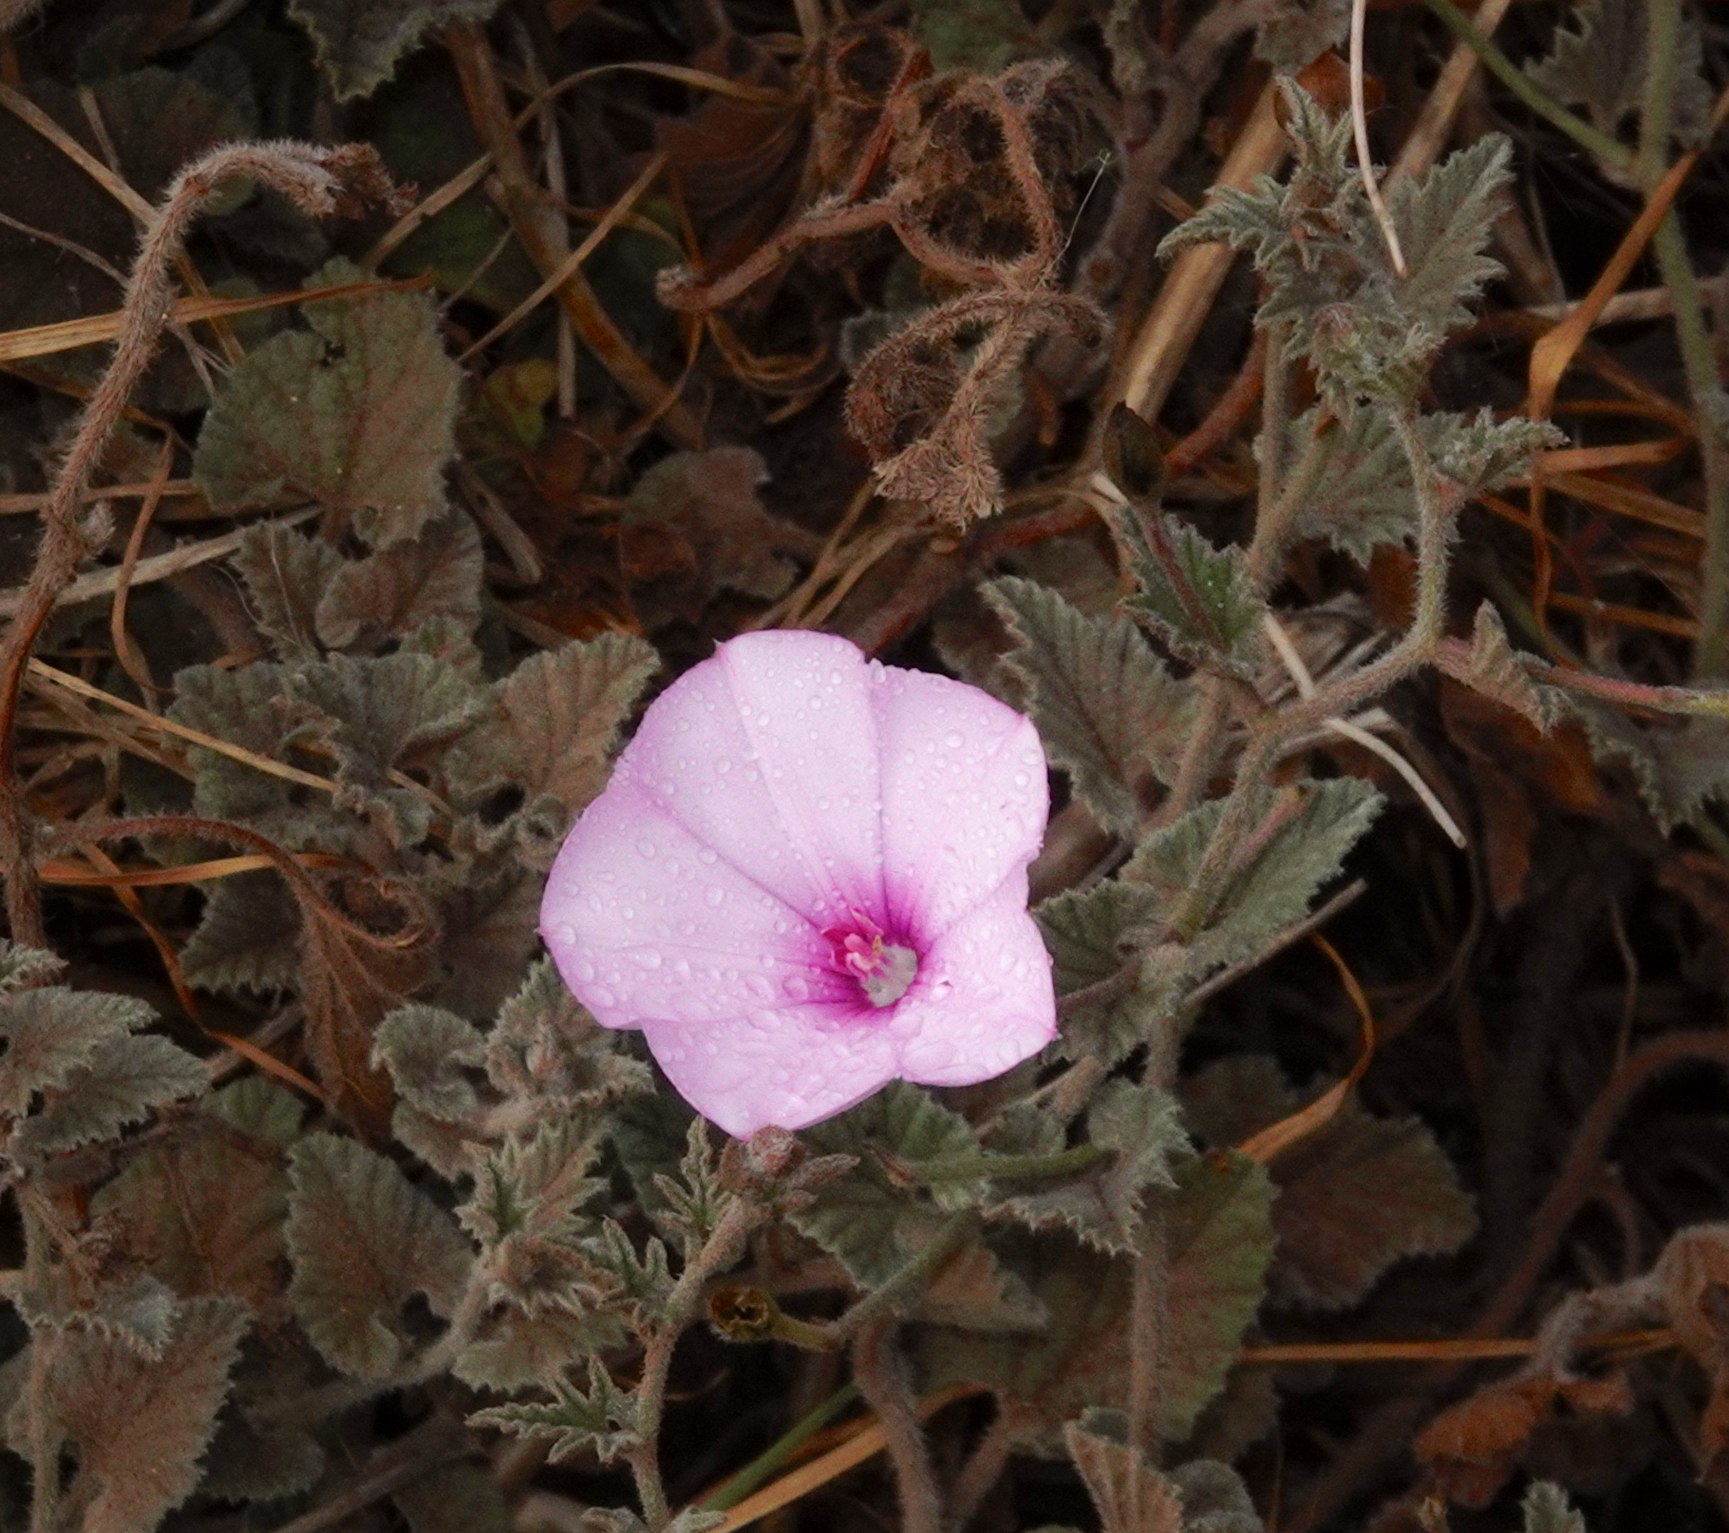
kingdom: Plantae
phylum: Tracheophyta
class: Magnoliopsida
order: Solanales
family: Convolvulaceae
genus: Convolvulus
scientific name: Convolvulus althaeoides
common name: Mallow bindweed
